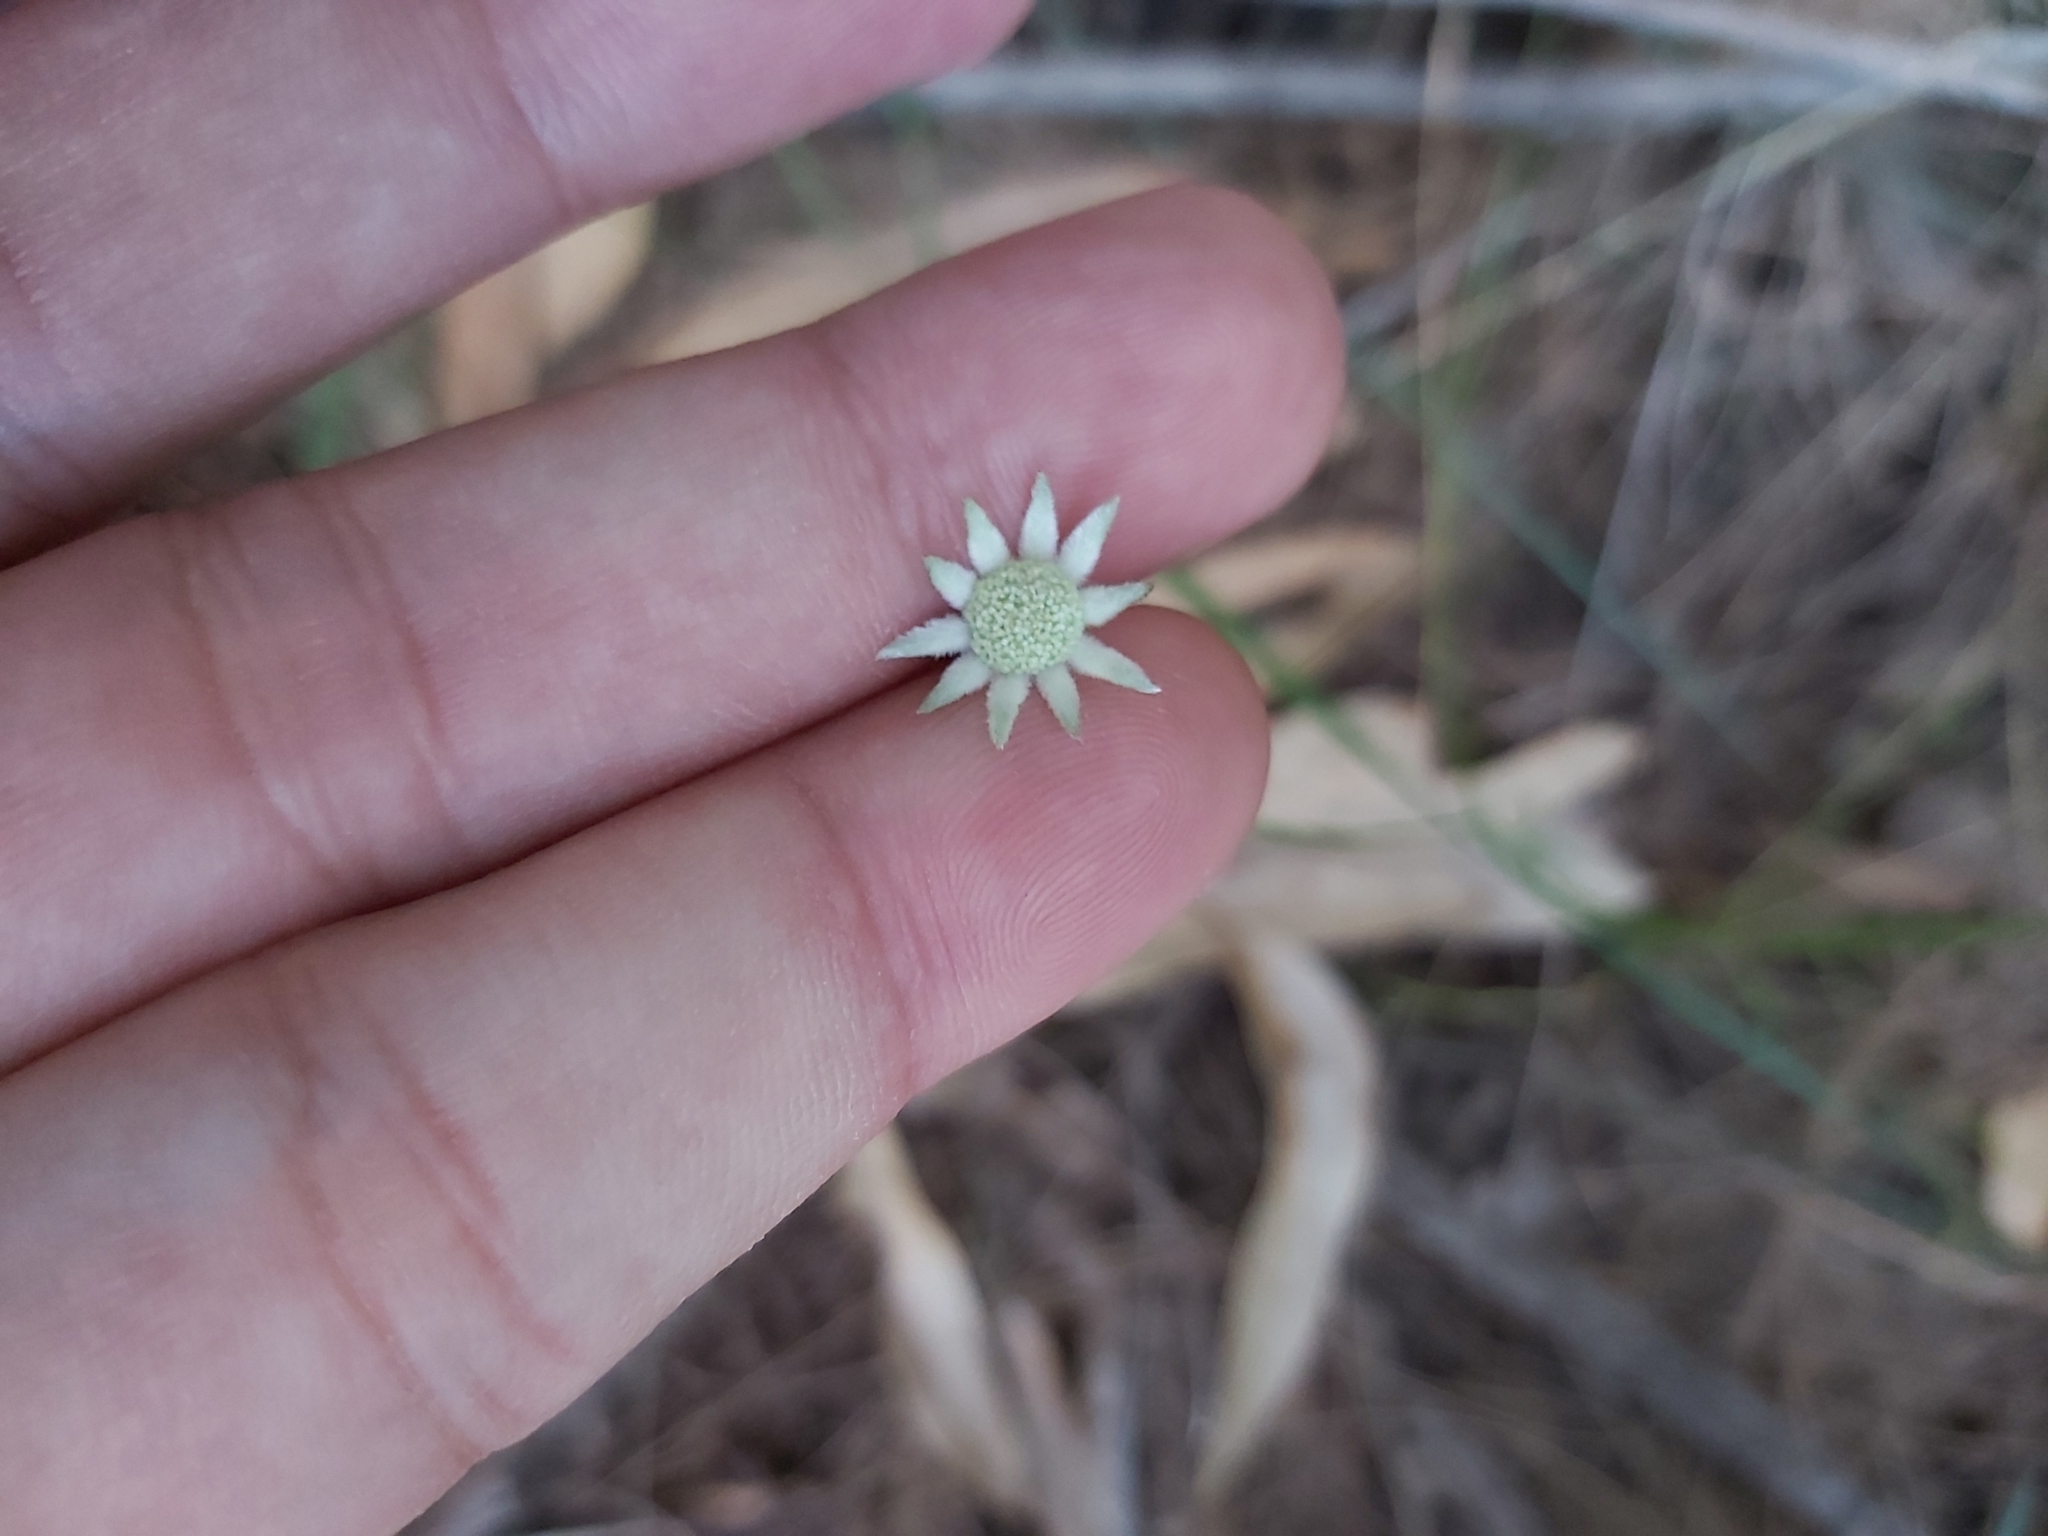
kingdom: Plantae
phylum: Tracheophyta
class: Magnoliopsida
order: Apiales
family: Apiaceae
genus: Actinotus
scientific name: Actinotus minor
